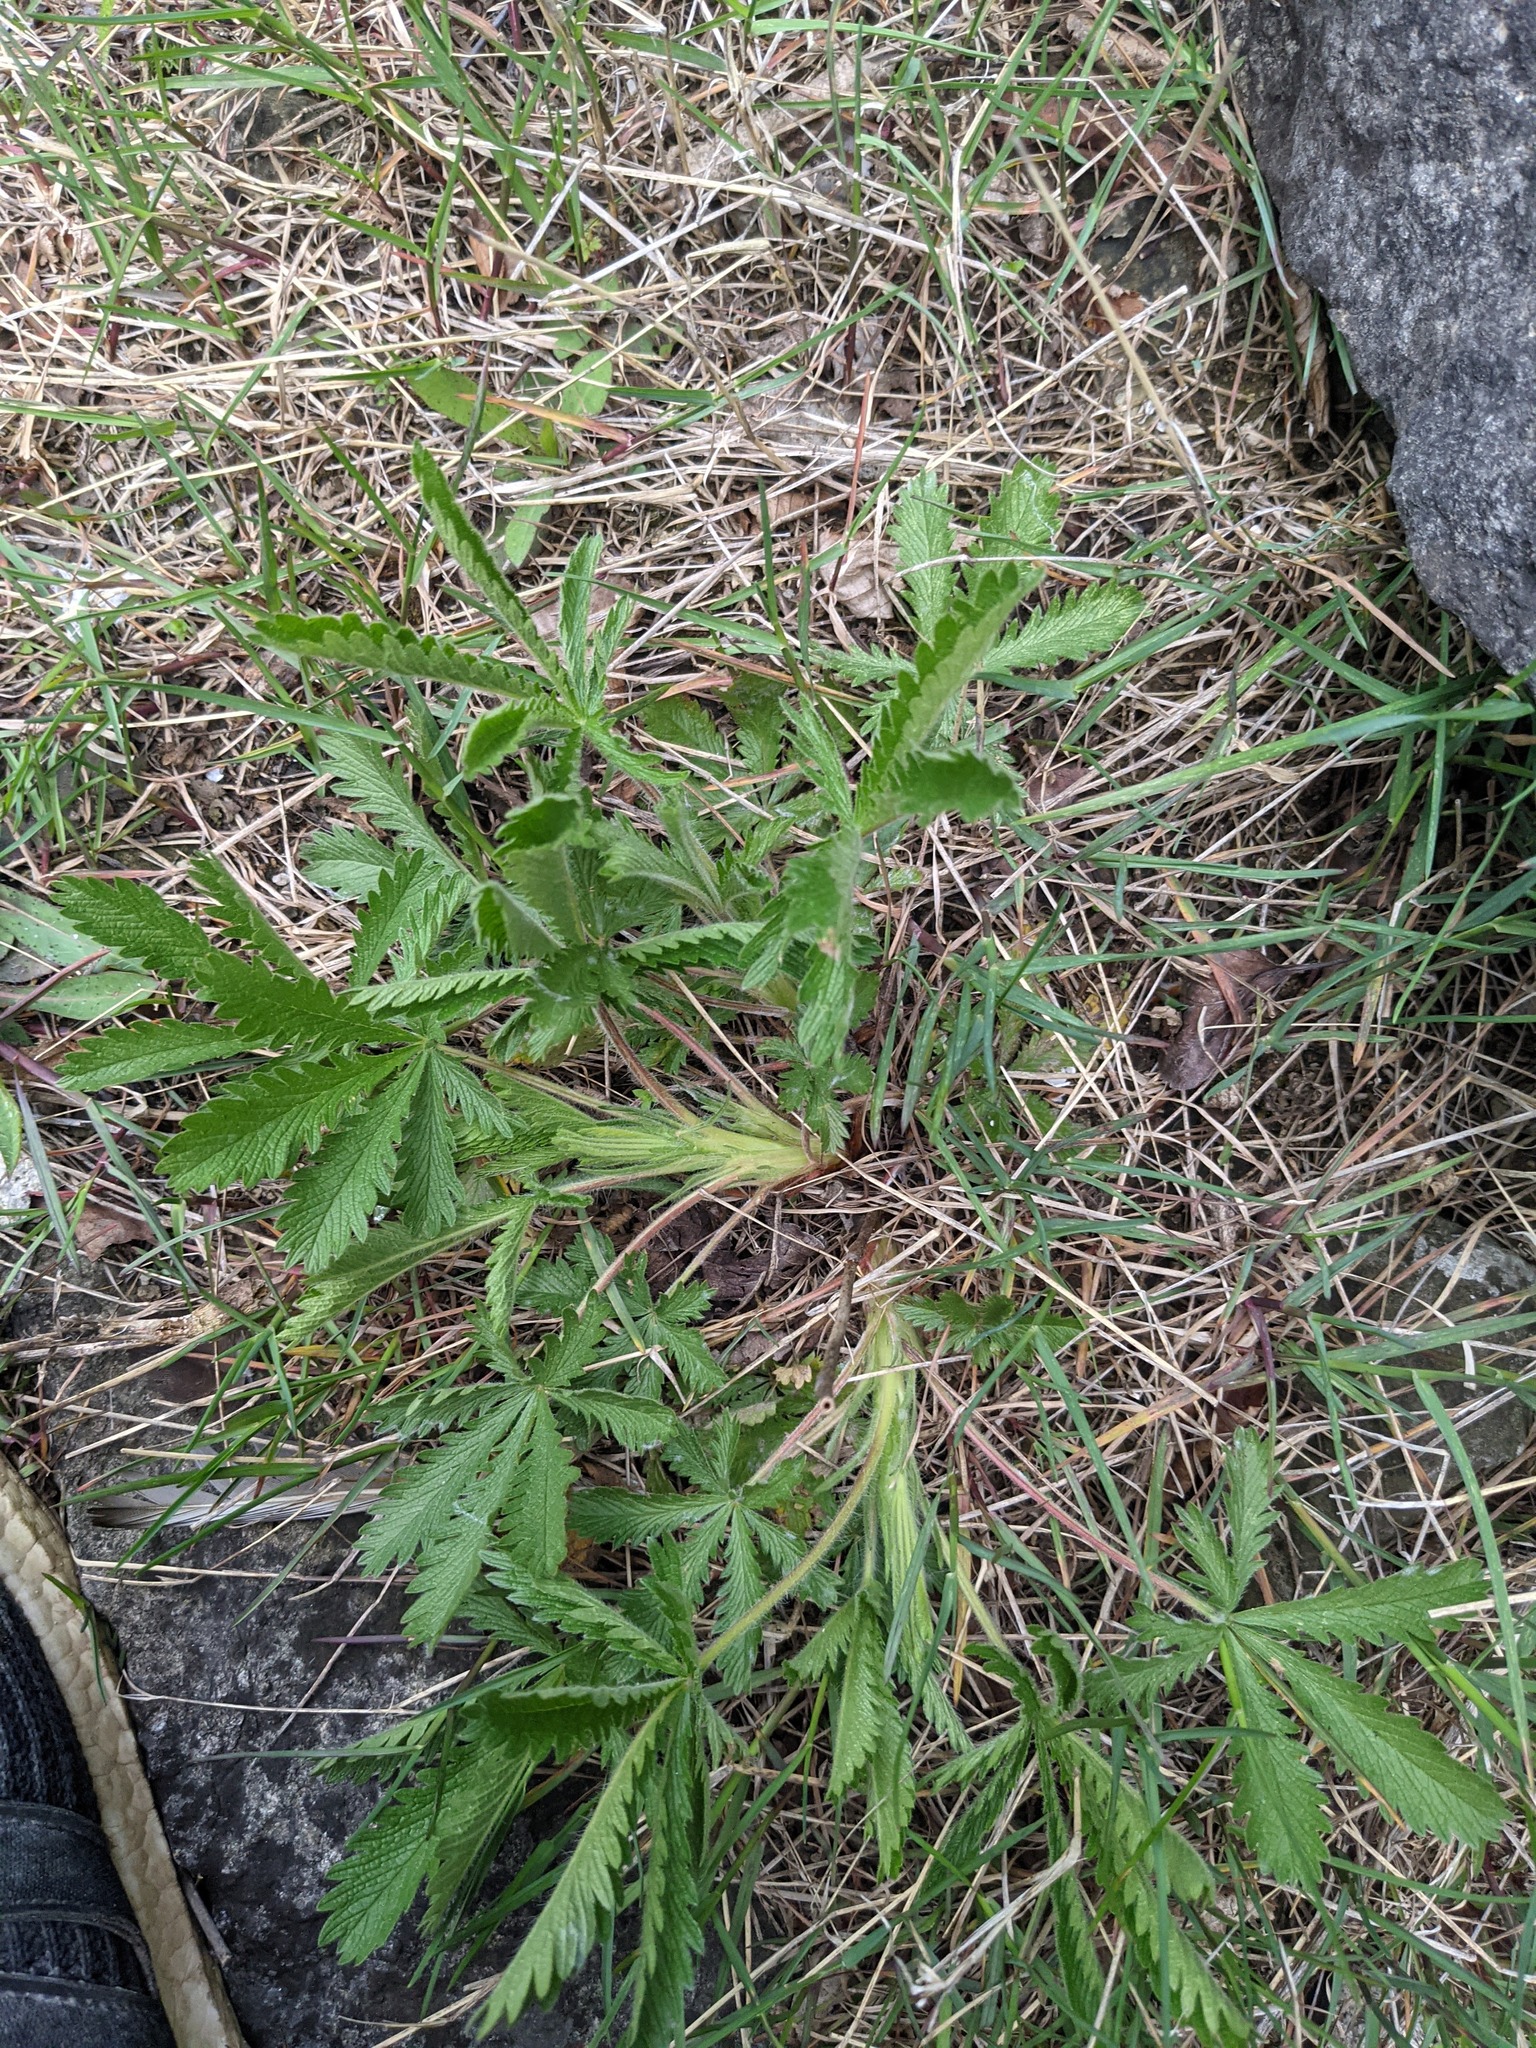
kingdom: Plantae
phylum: Tracheophyta
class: Magnoliopsida
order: Rosales
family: Rosaceae
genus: Potentilla
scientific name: Potentilla recta
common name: Sulphur cinquefoil
